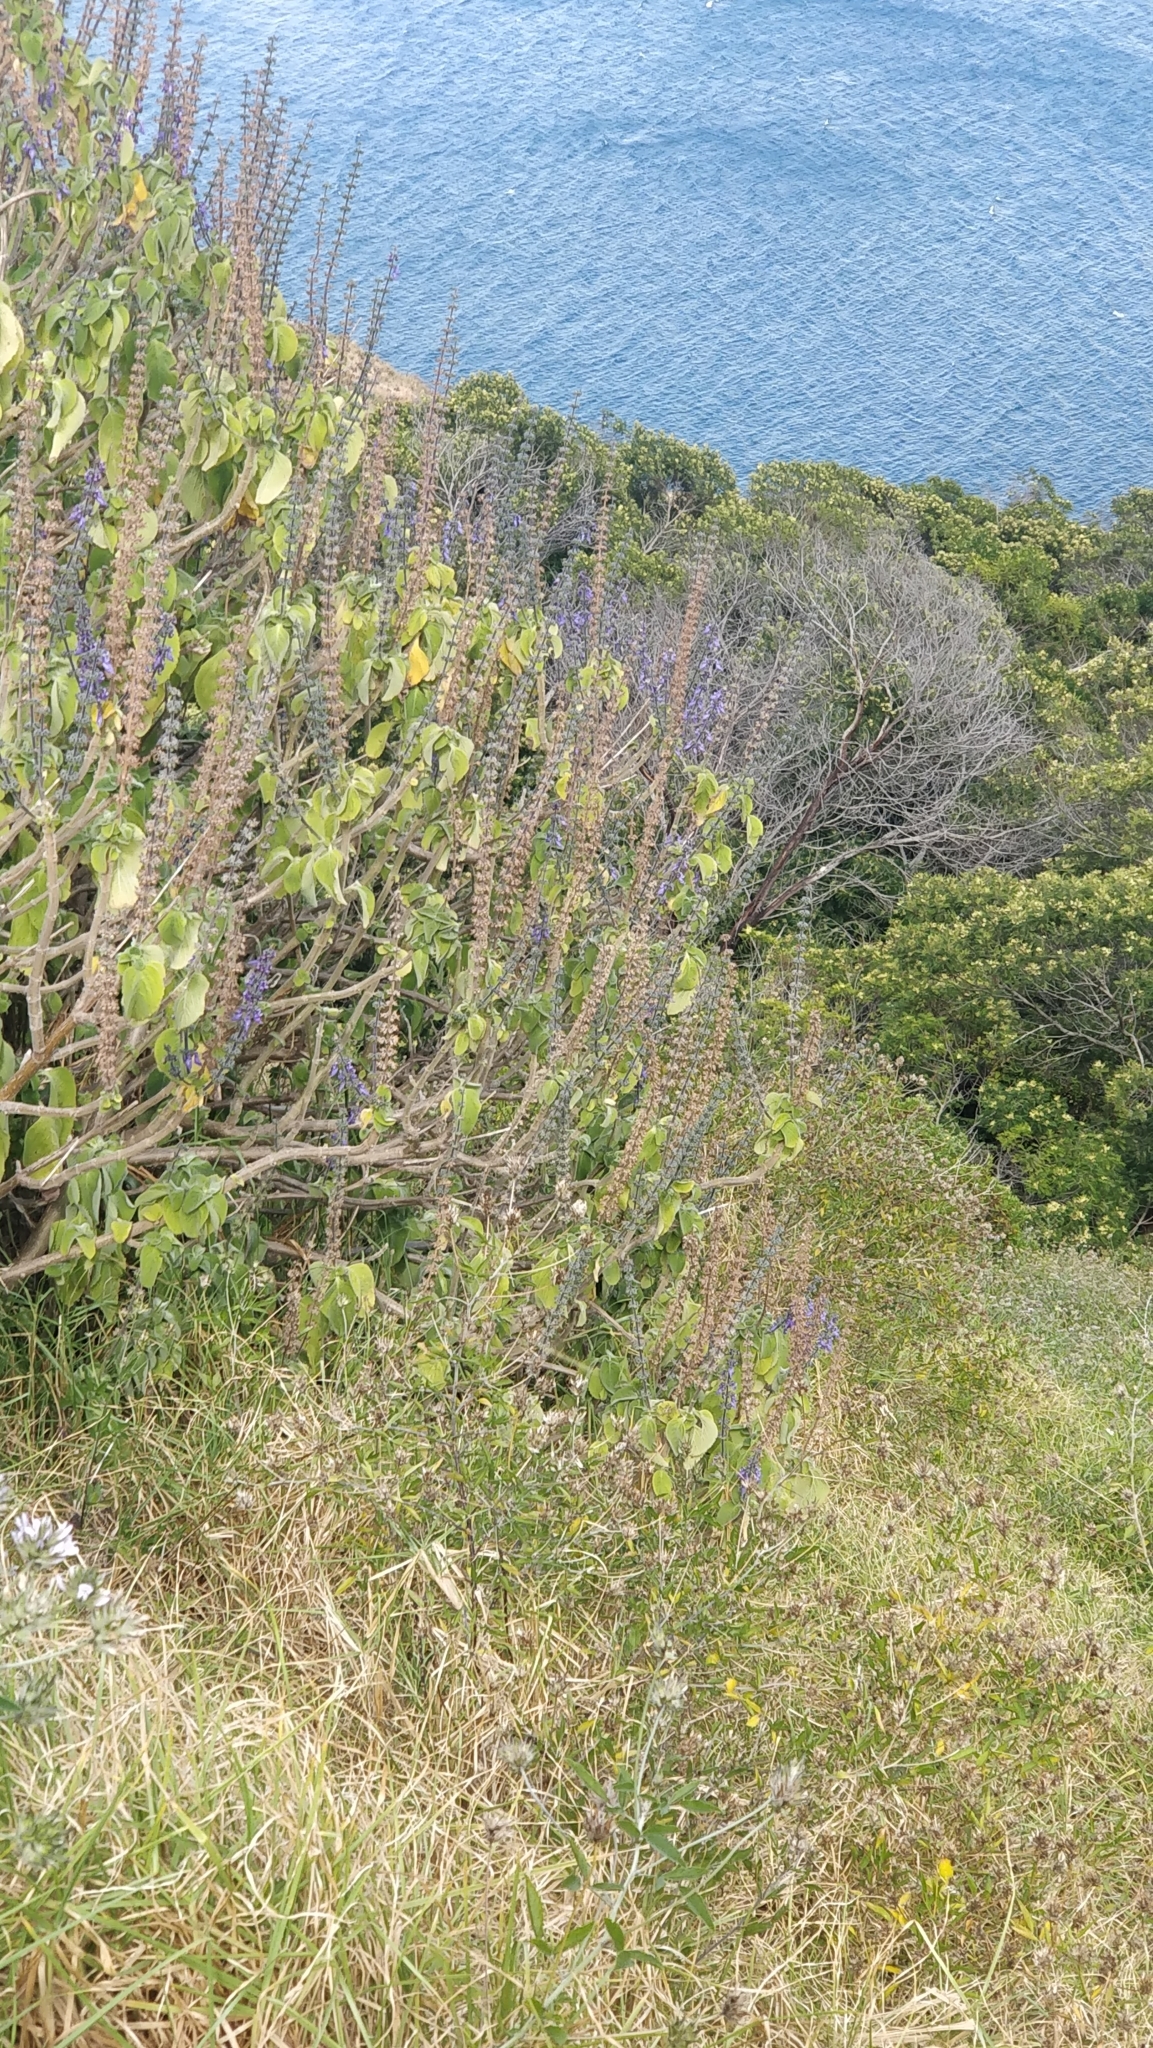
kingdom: Plantae
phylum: Tracheophyta
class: Magnoliopsida
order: Lamiales
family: Lamiaceae
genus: Coleus
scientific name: Coleus barbatus
